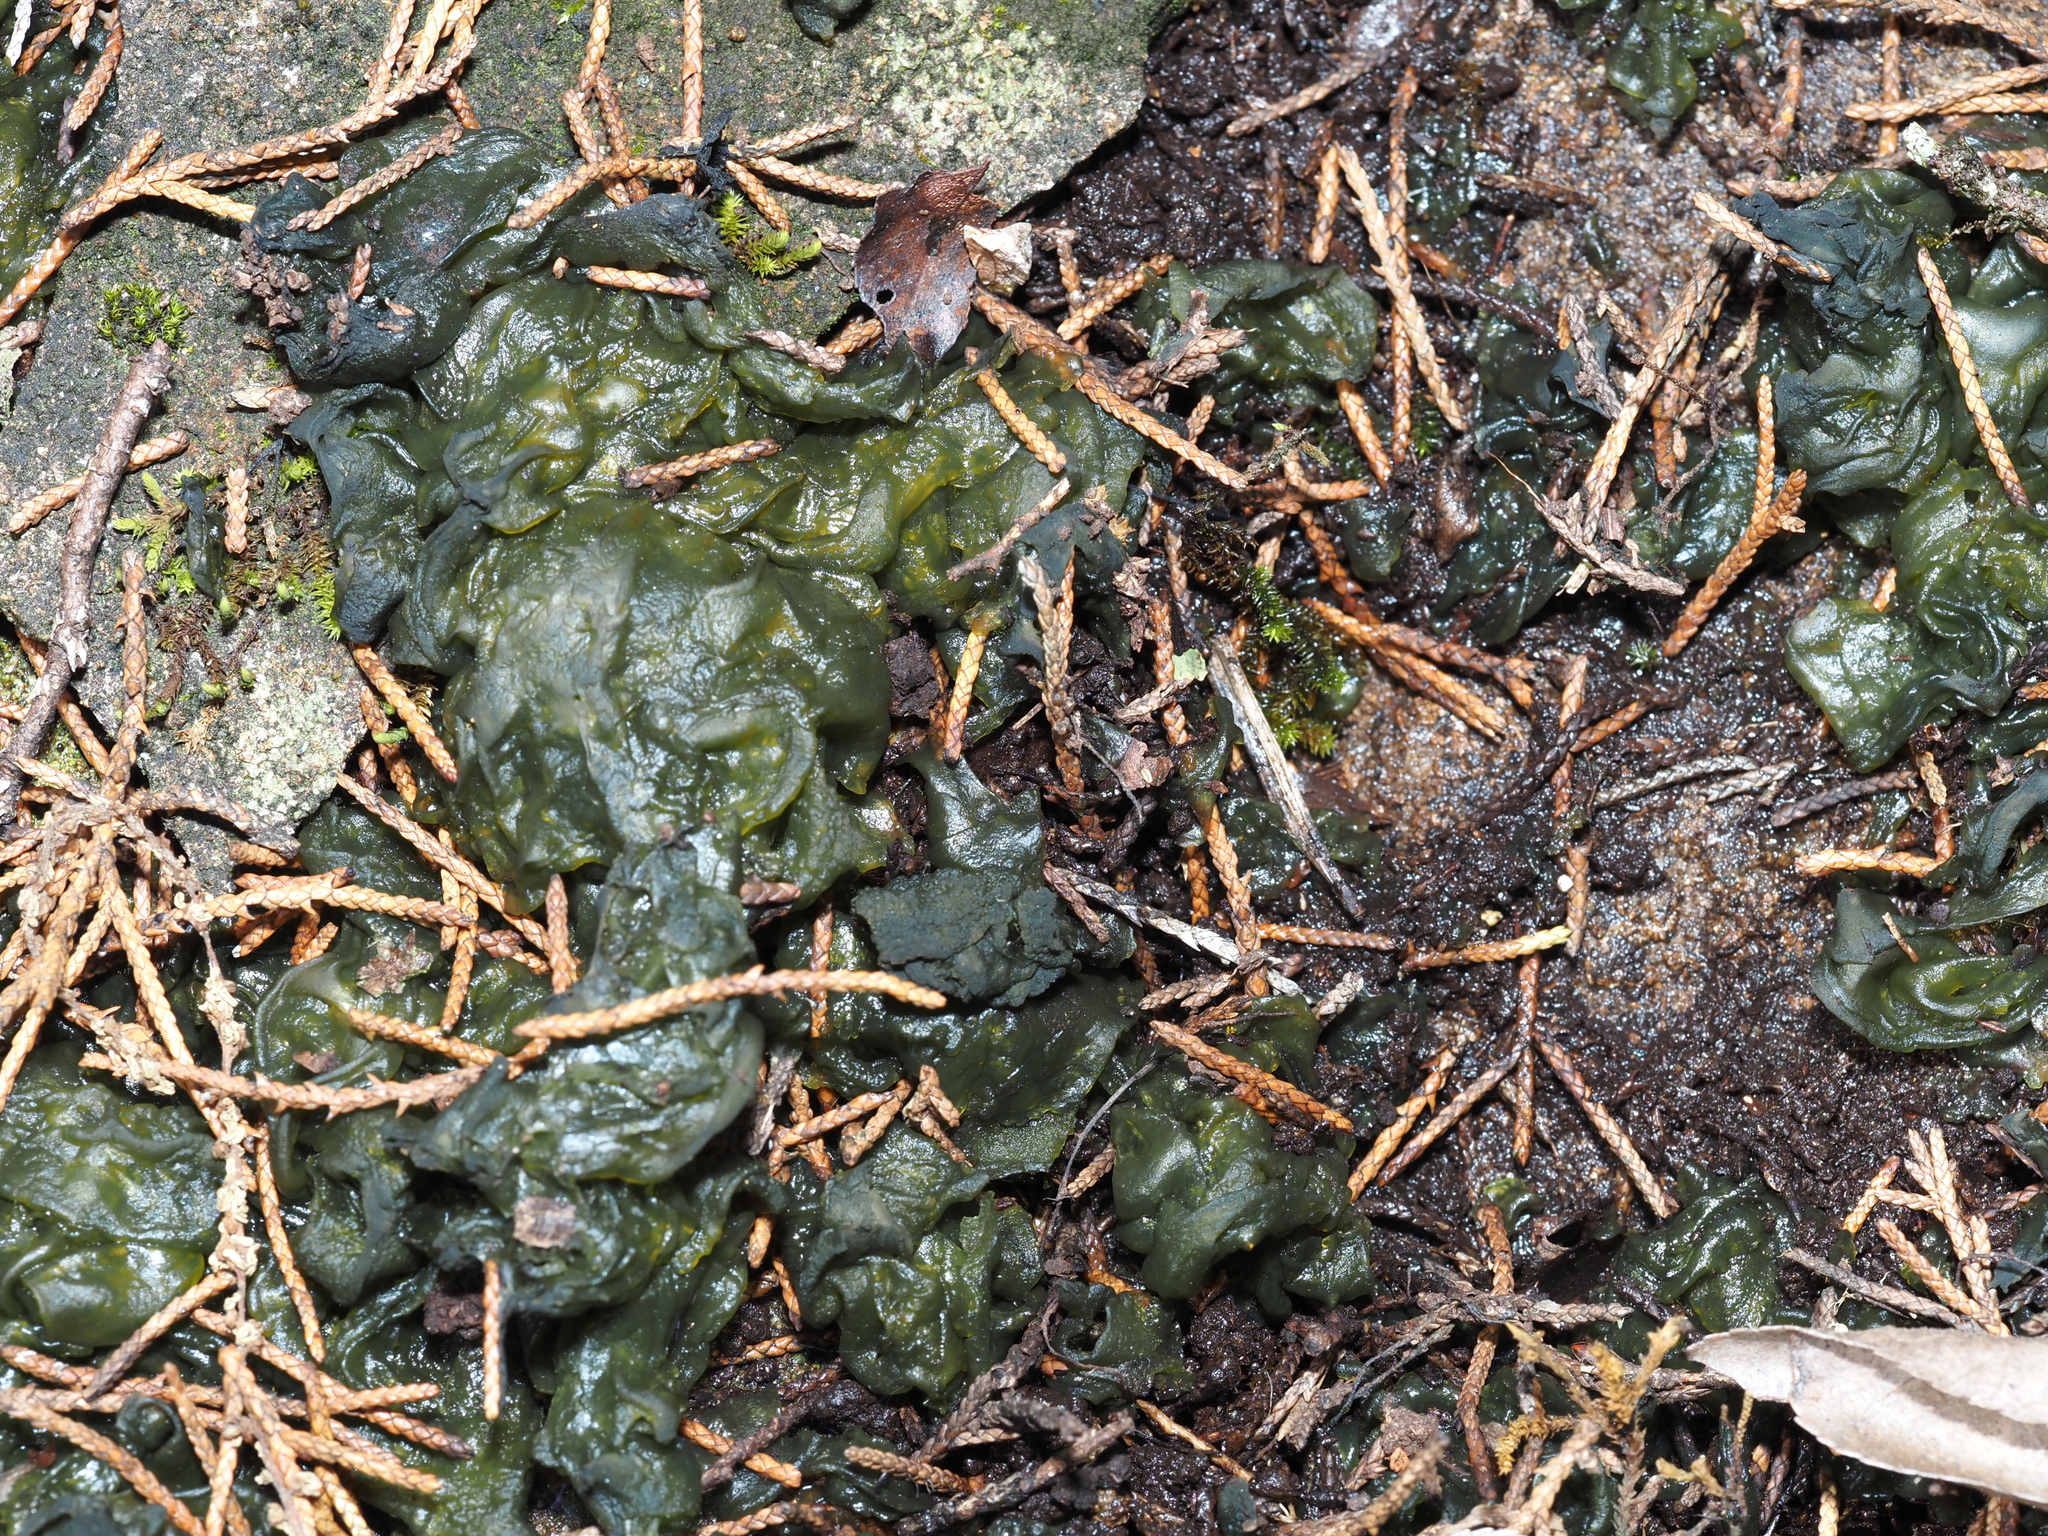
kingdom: Bacteria
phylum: Cyanobacteria
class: Cyanobacteriia
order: Cyanobacteriales
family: Nostocaceae
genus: Nostoc
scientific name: Nostoc commune
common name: Star jelly
